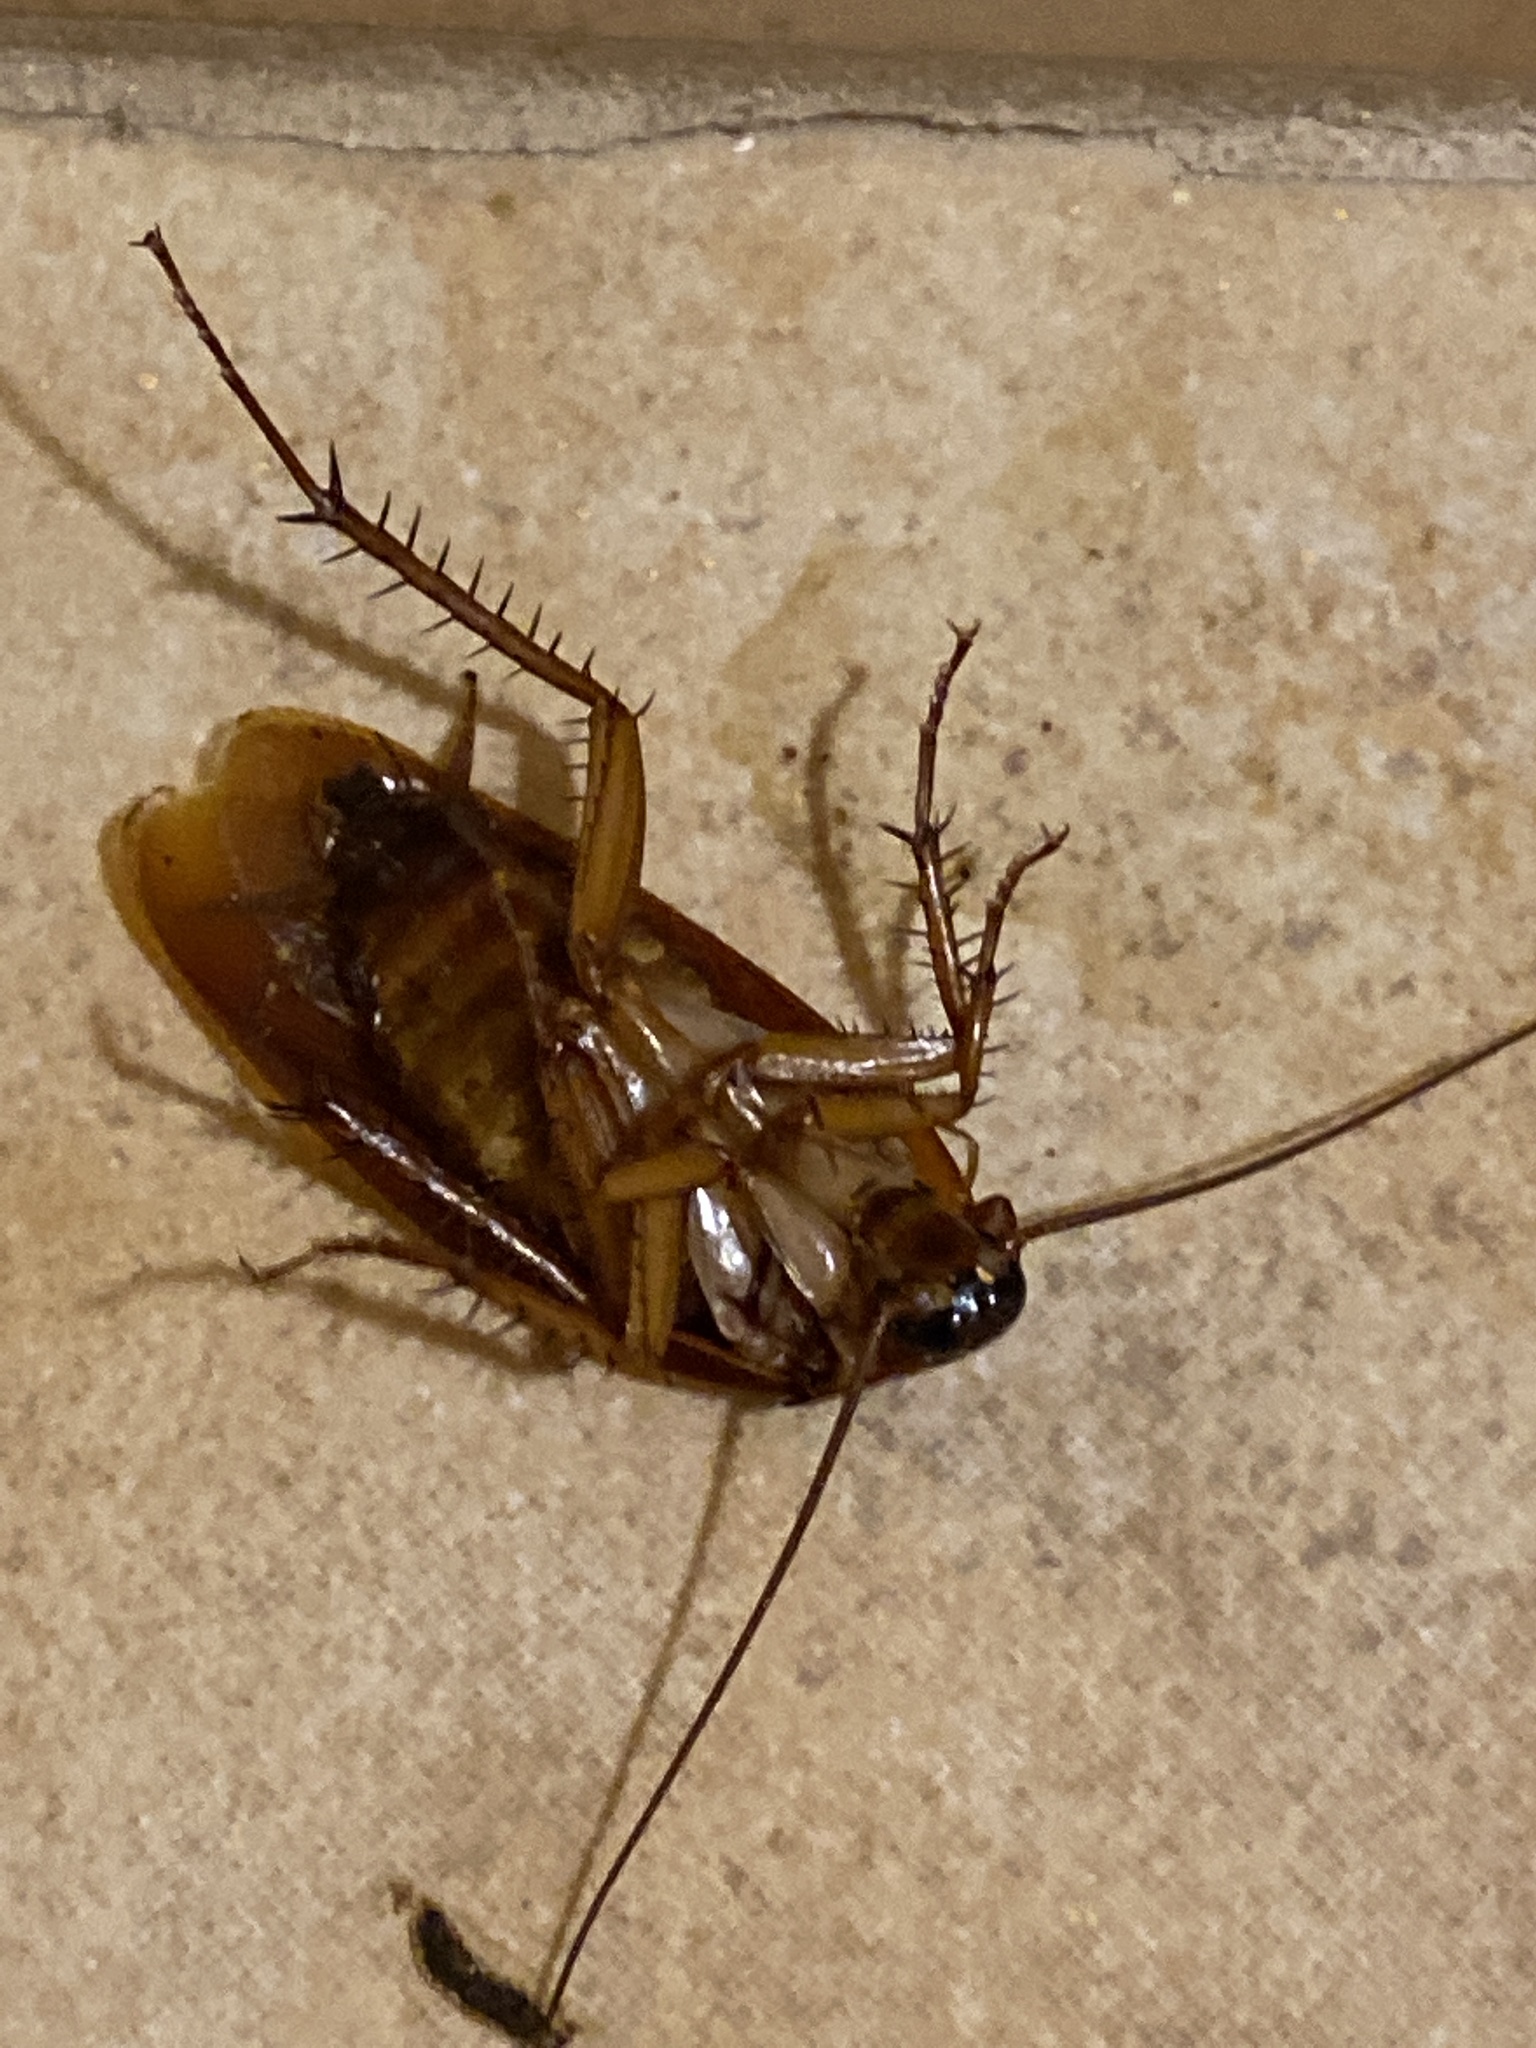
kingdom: Animalia
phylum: Arthropoda
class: Insecta
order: Blattodea
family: Blattidae
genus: Periplaneta
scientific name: Periplaneta americana
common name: American cockroach
